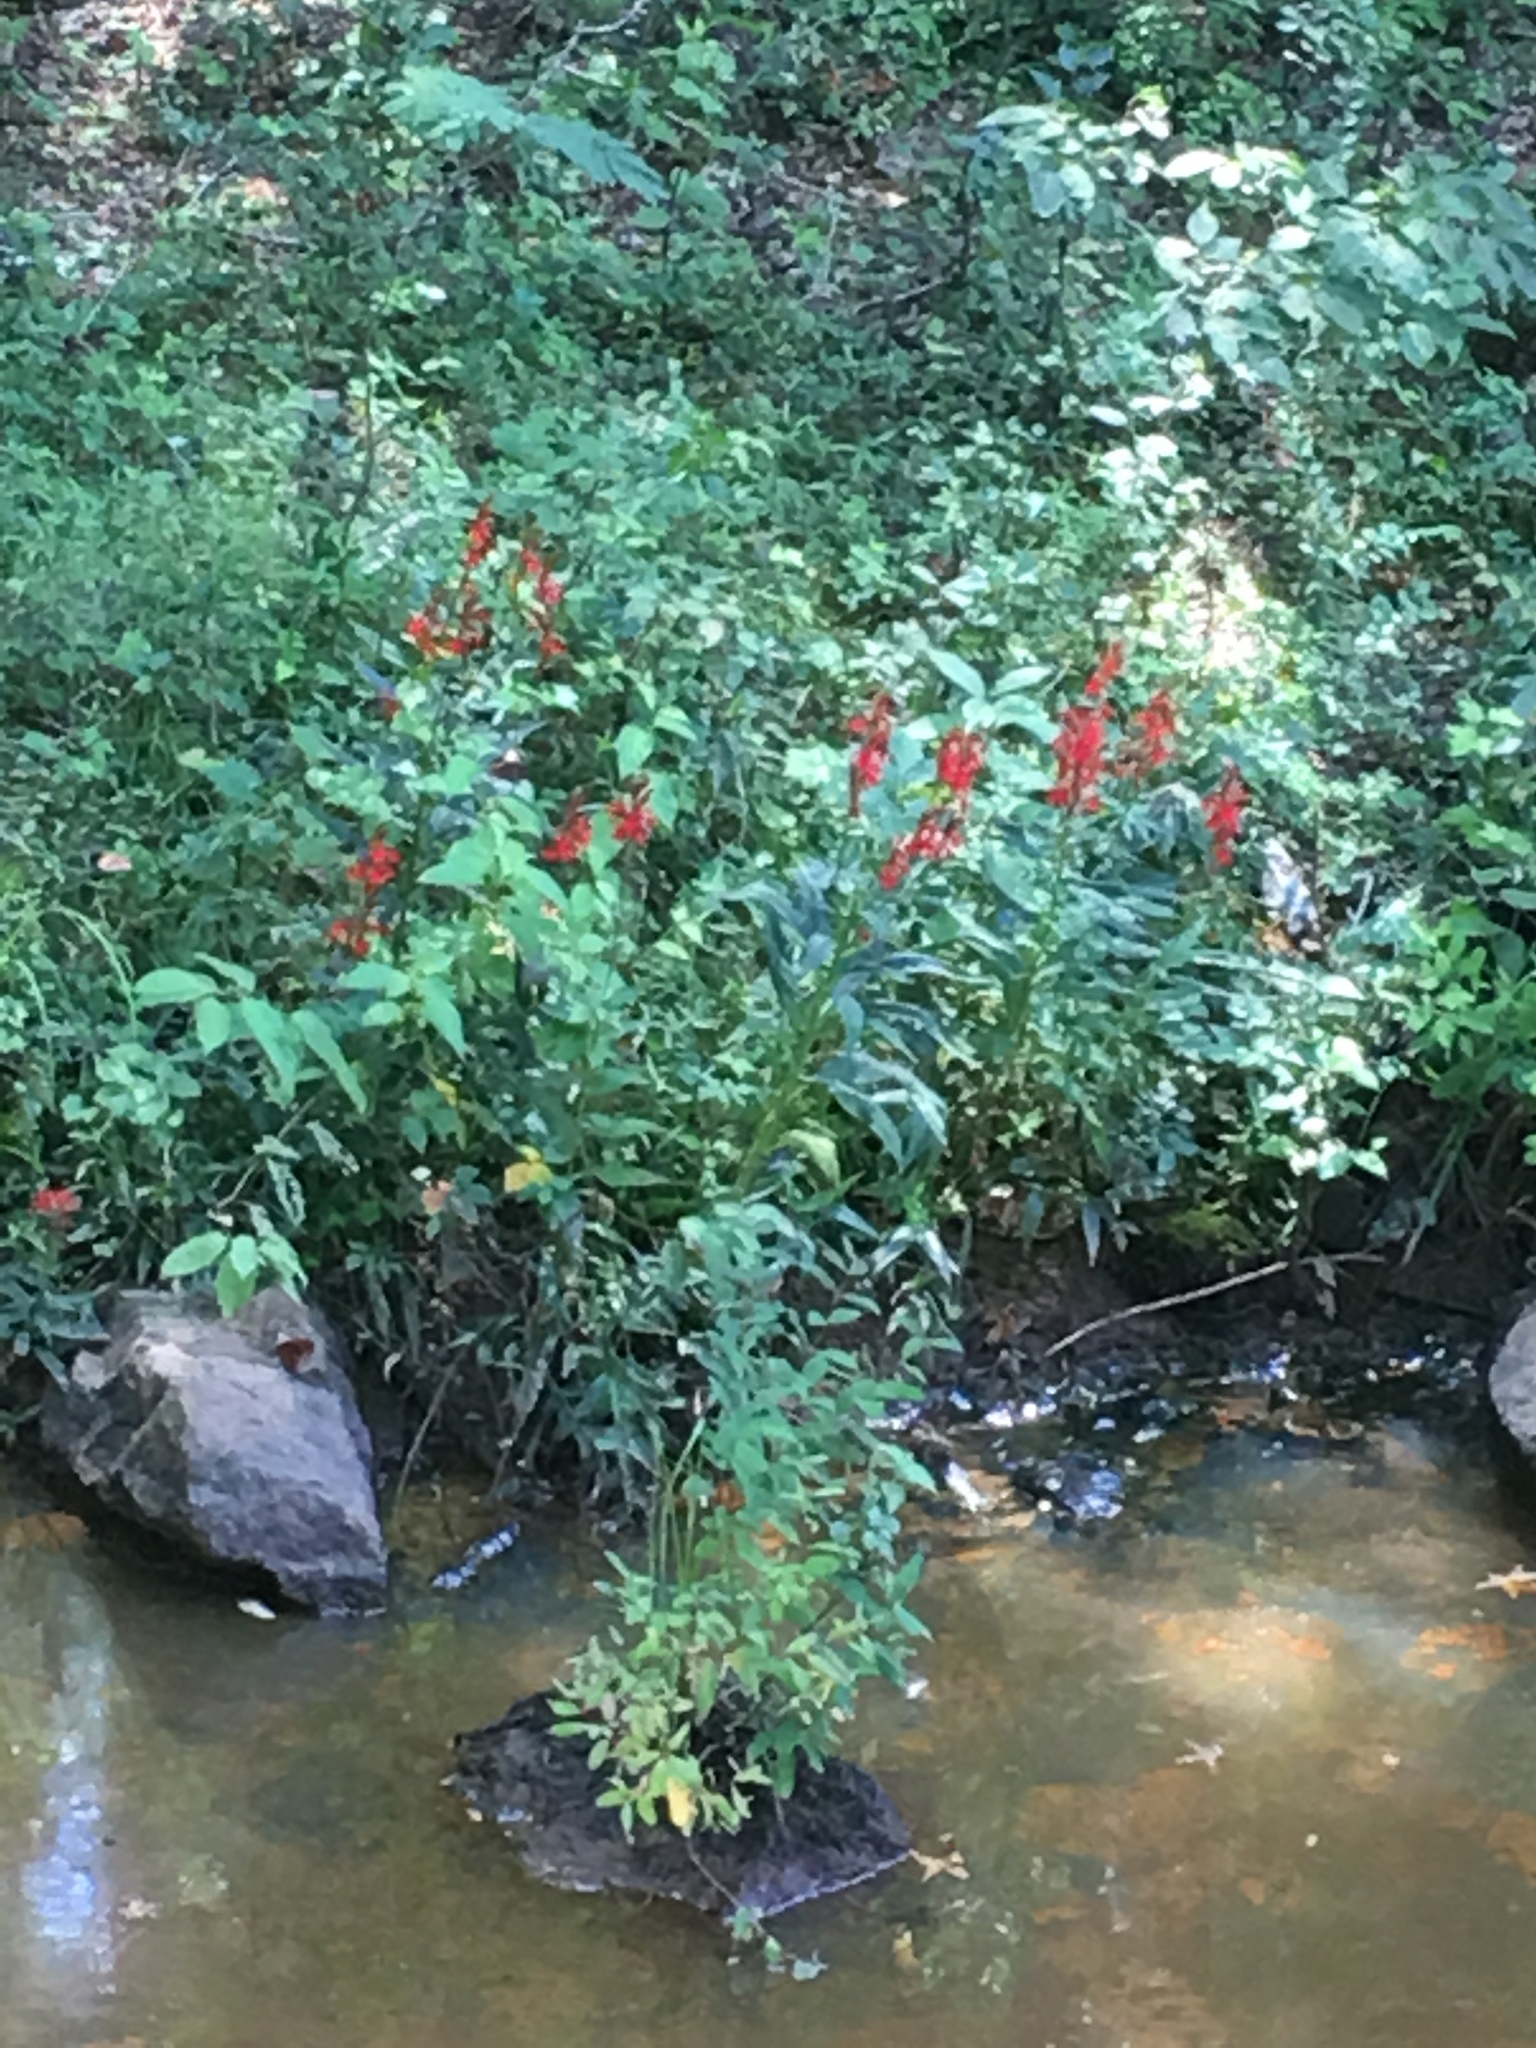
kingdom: Plantae
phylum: Tracheophyta
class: Magnoliopsida
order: Asterales
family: Campanulaceae
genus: Lobelia
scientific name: Lobelia cardinalis
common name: Cardinal flower
